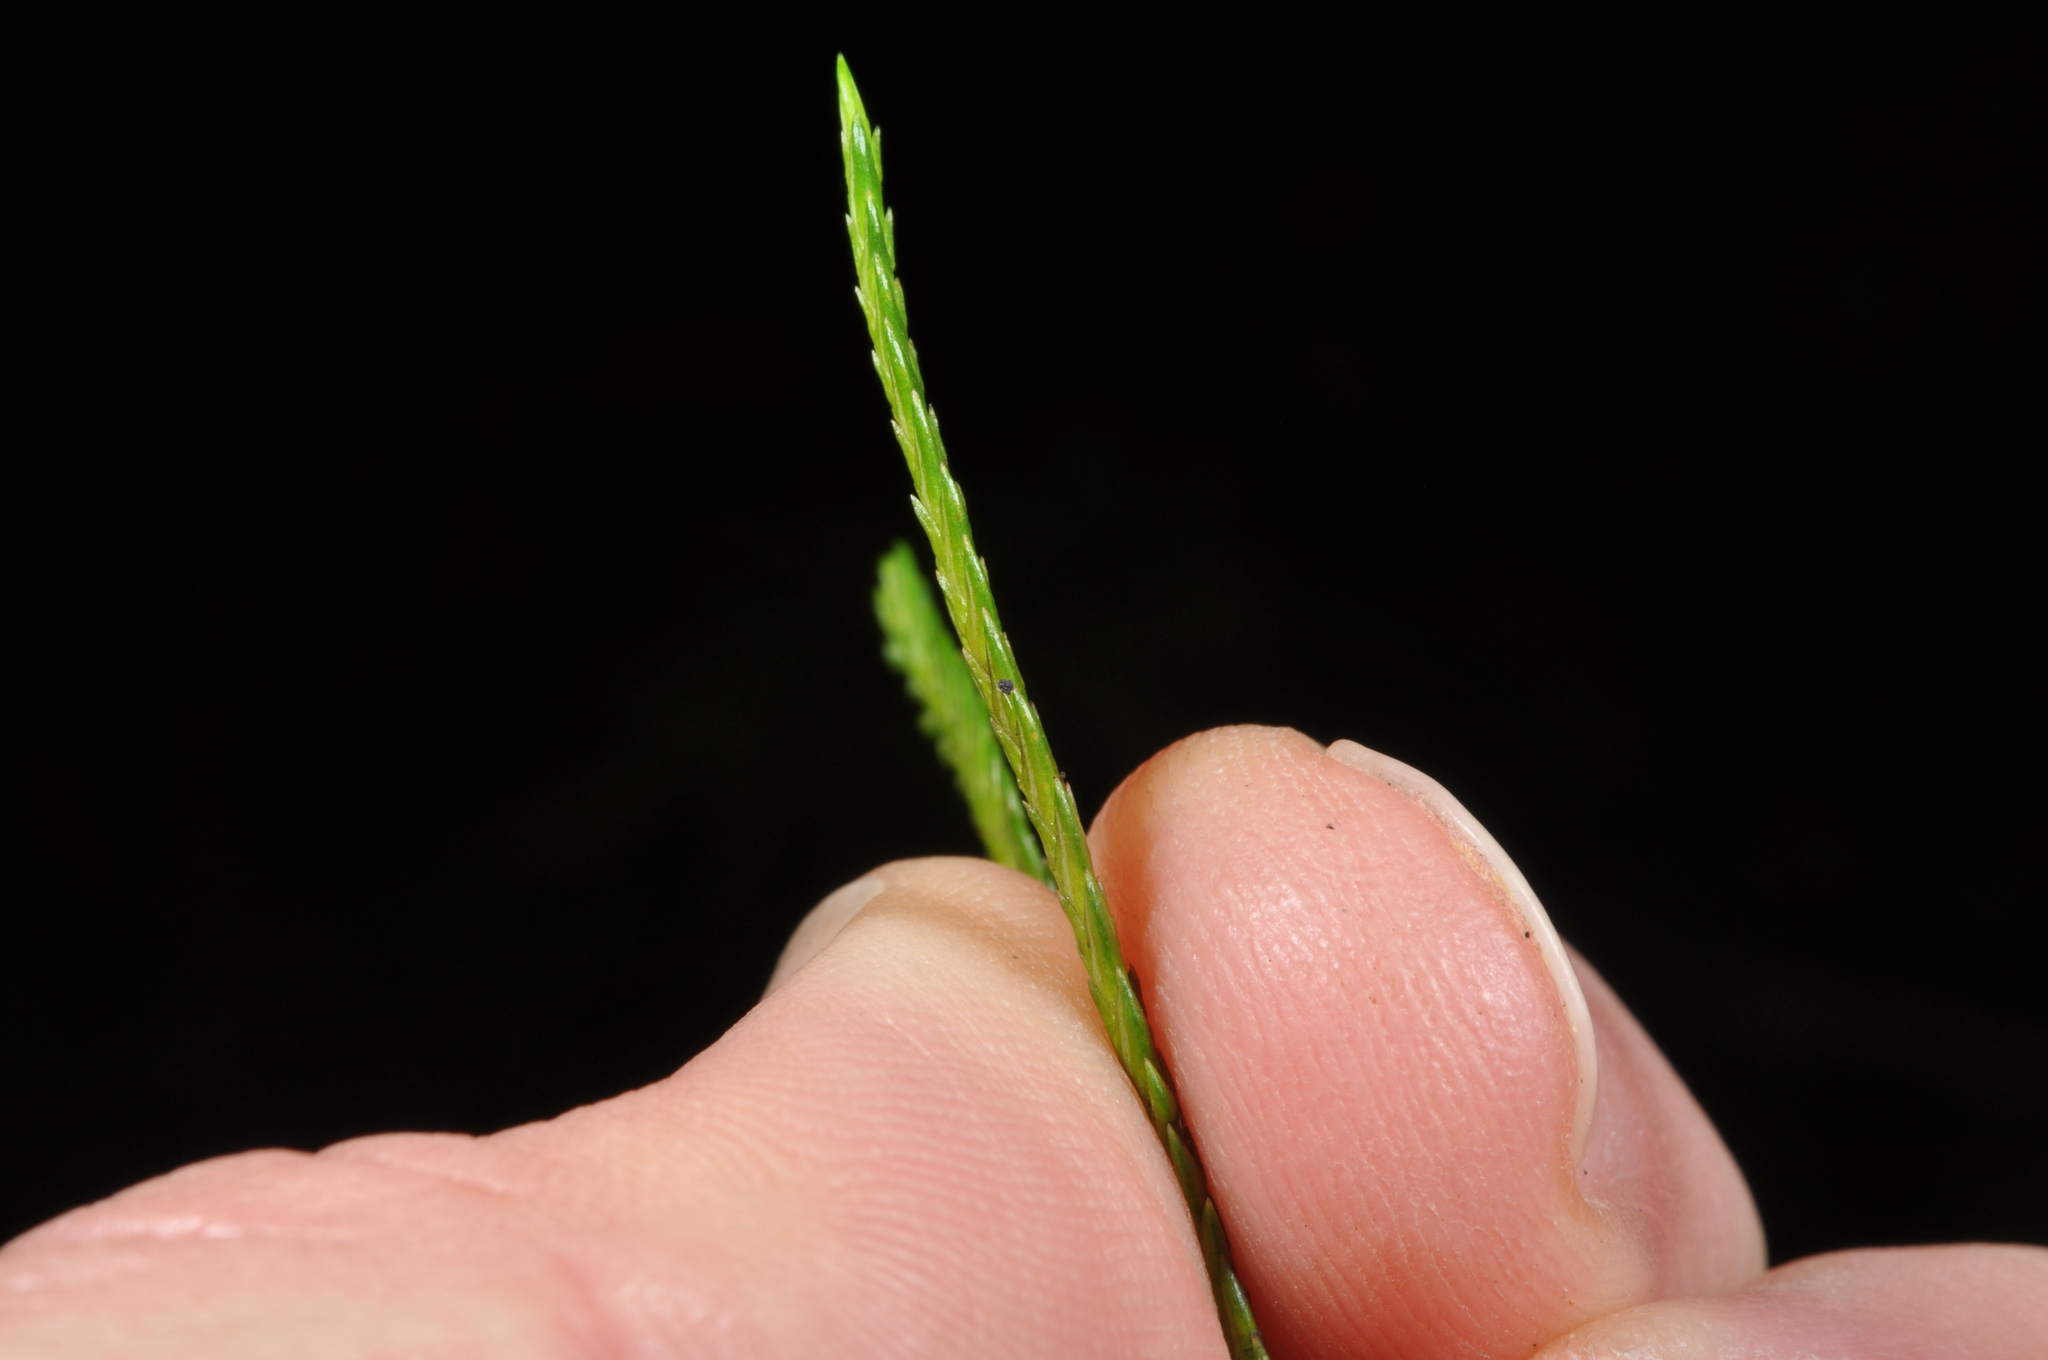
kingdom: Plantae
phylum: Tracheophyta
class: Pinopsida
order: Pinales
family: Cupressaceae
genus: Libocedrus
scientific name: Libocedrus bidwillii
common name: Cedar
